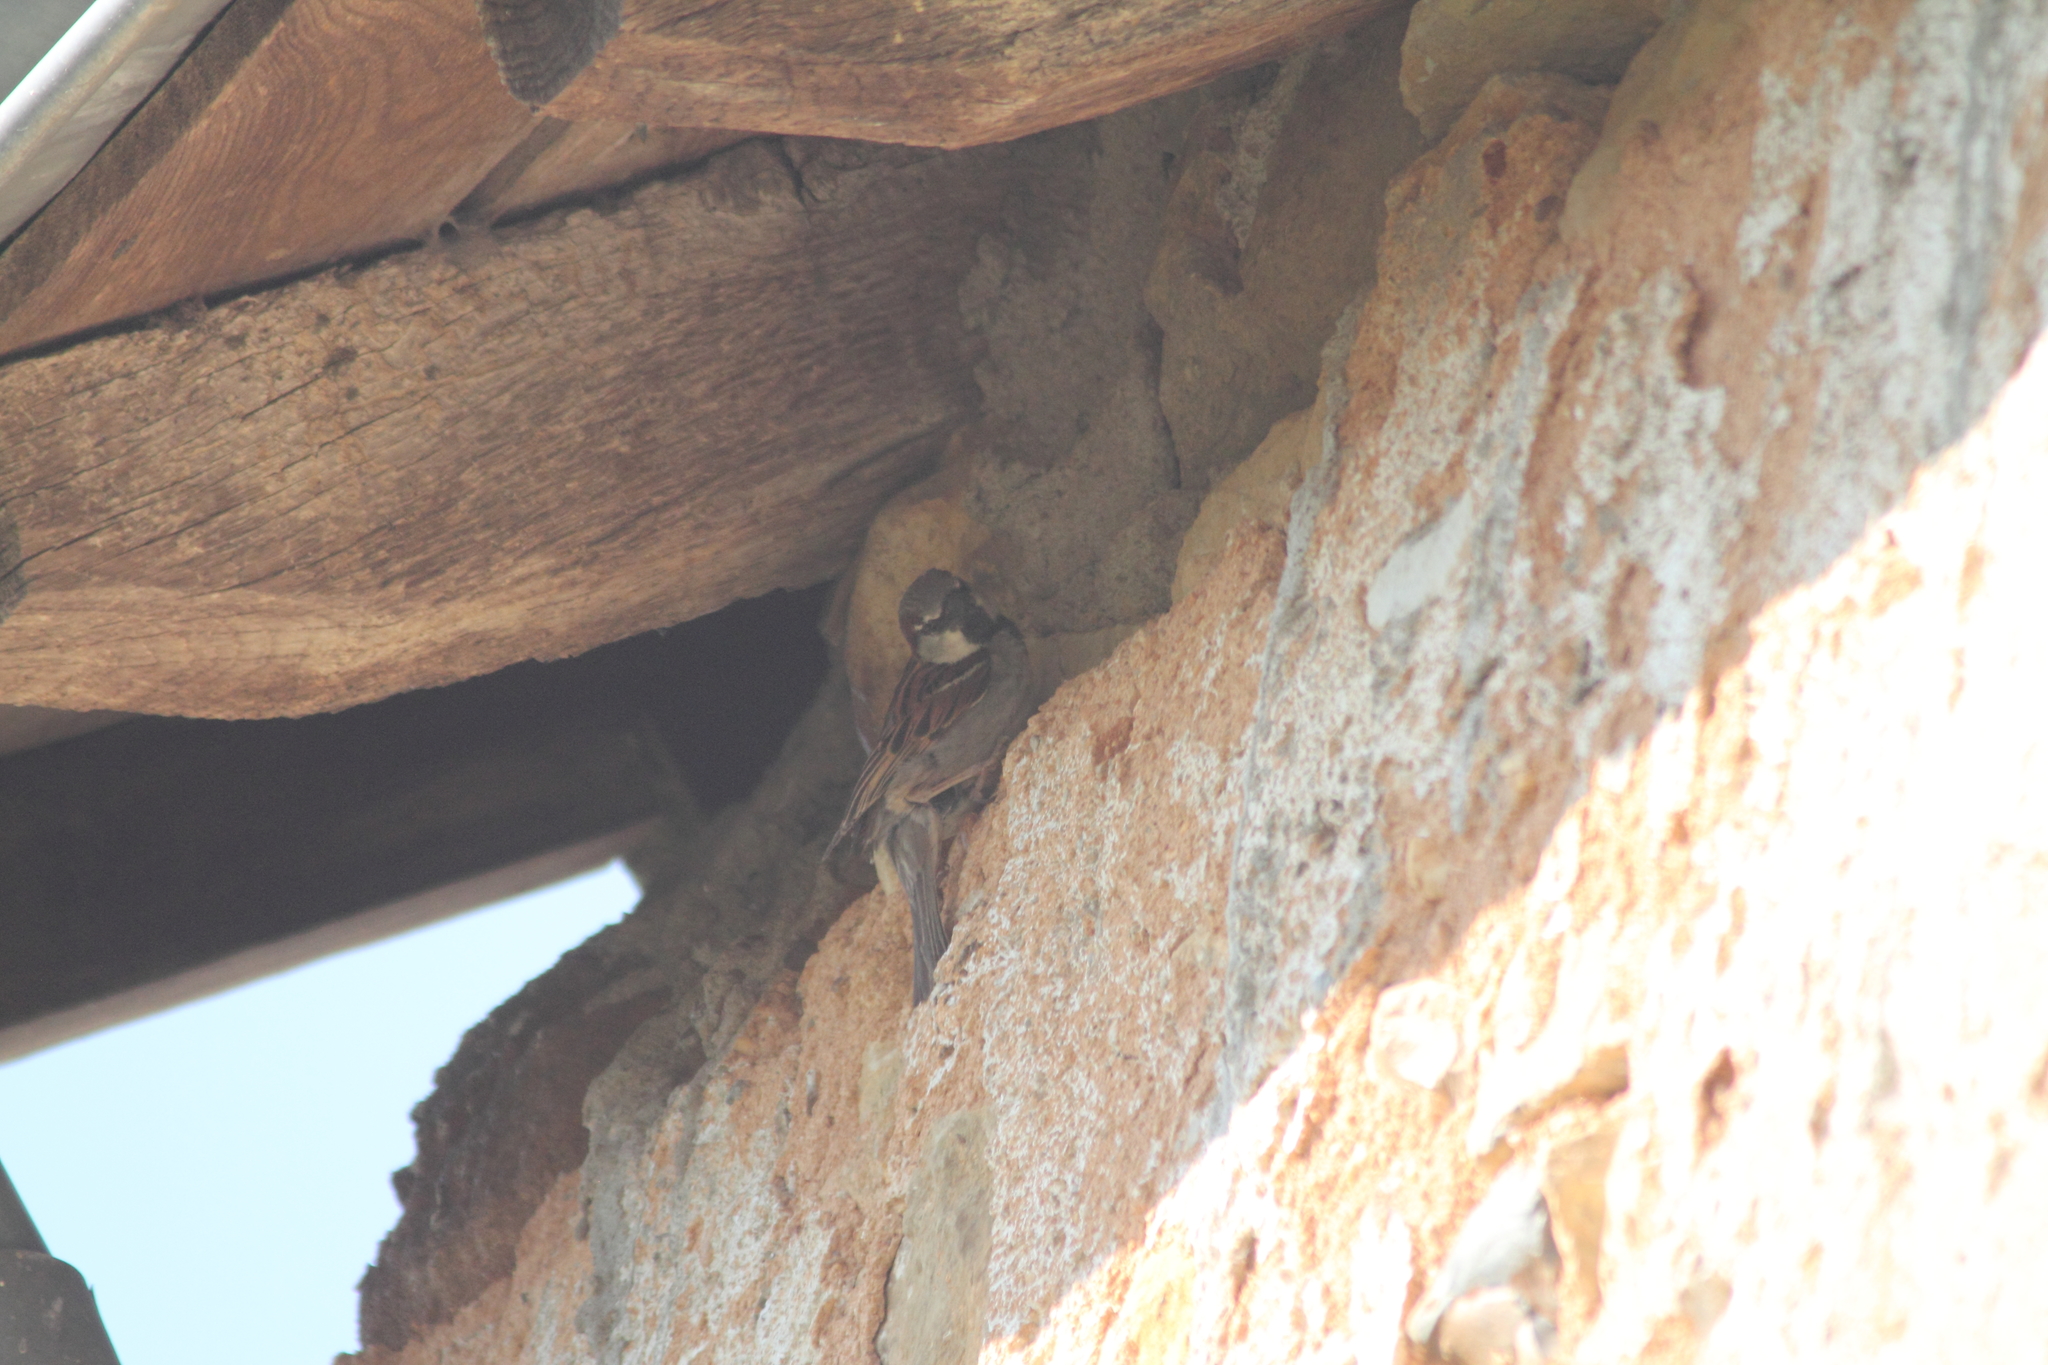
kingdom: Animalia
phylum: Chordata
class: Aves
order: Passeriformes
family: Passeridae
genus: Passer
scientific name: Passer domesticus
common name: House sparrow
